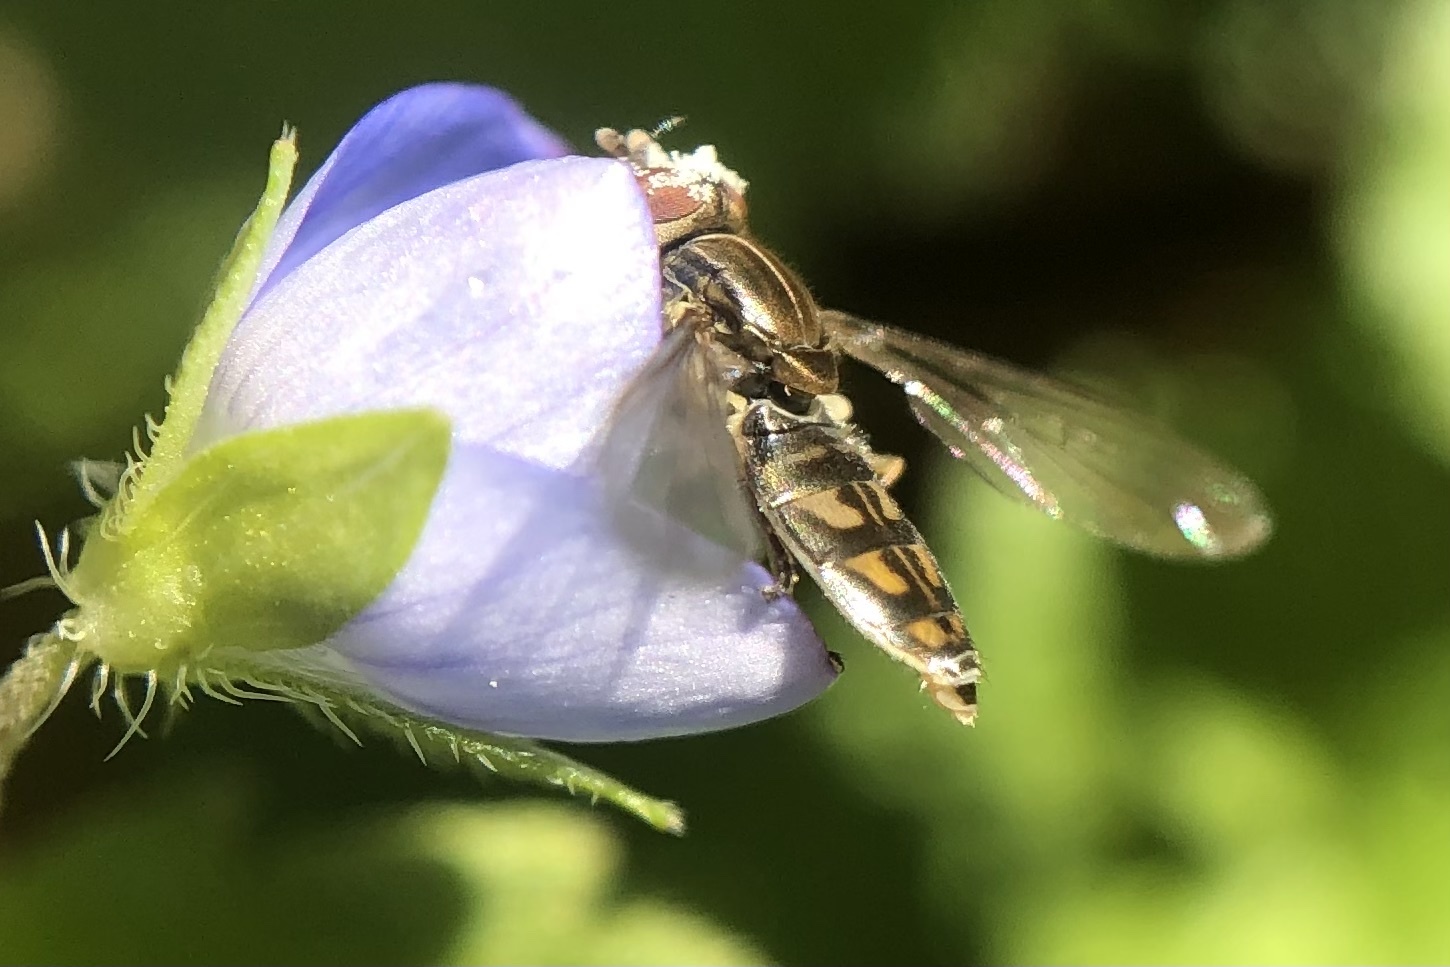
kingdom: Animalia
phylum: Arthropoda
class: Insecta
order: Diptera
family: Syrphidae
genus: Toxomerus
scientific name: Toxomerus marginatus
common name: Syrphid fly
